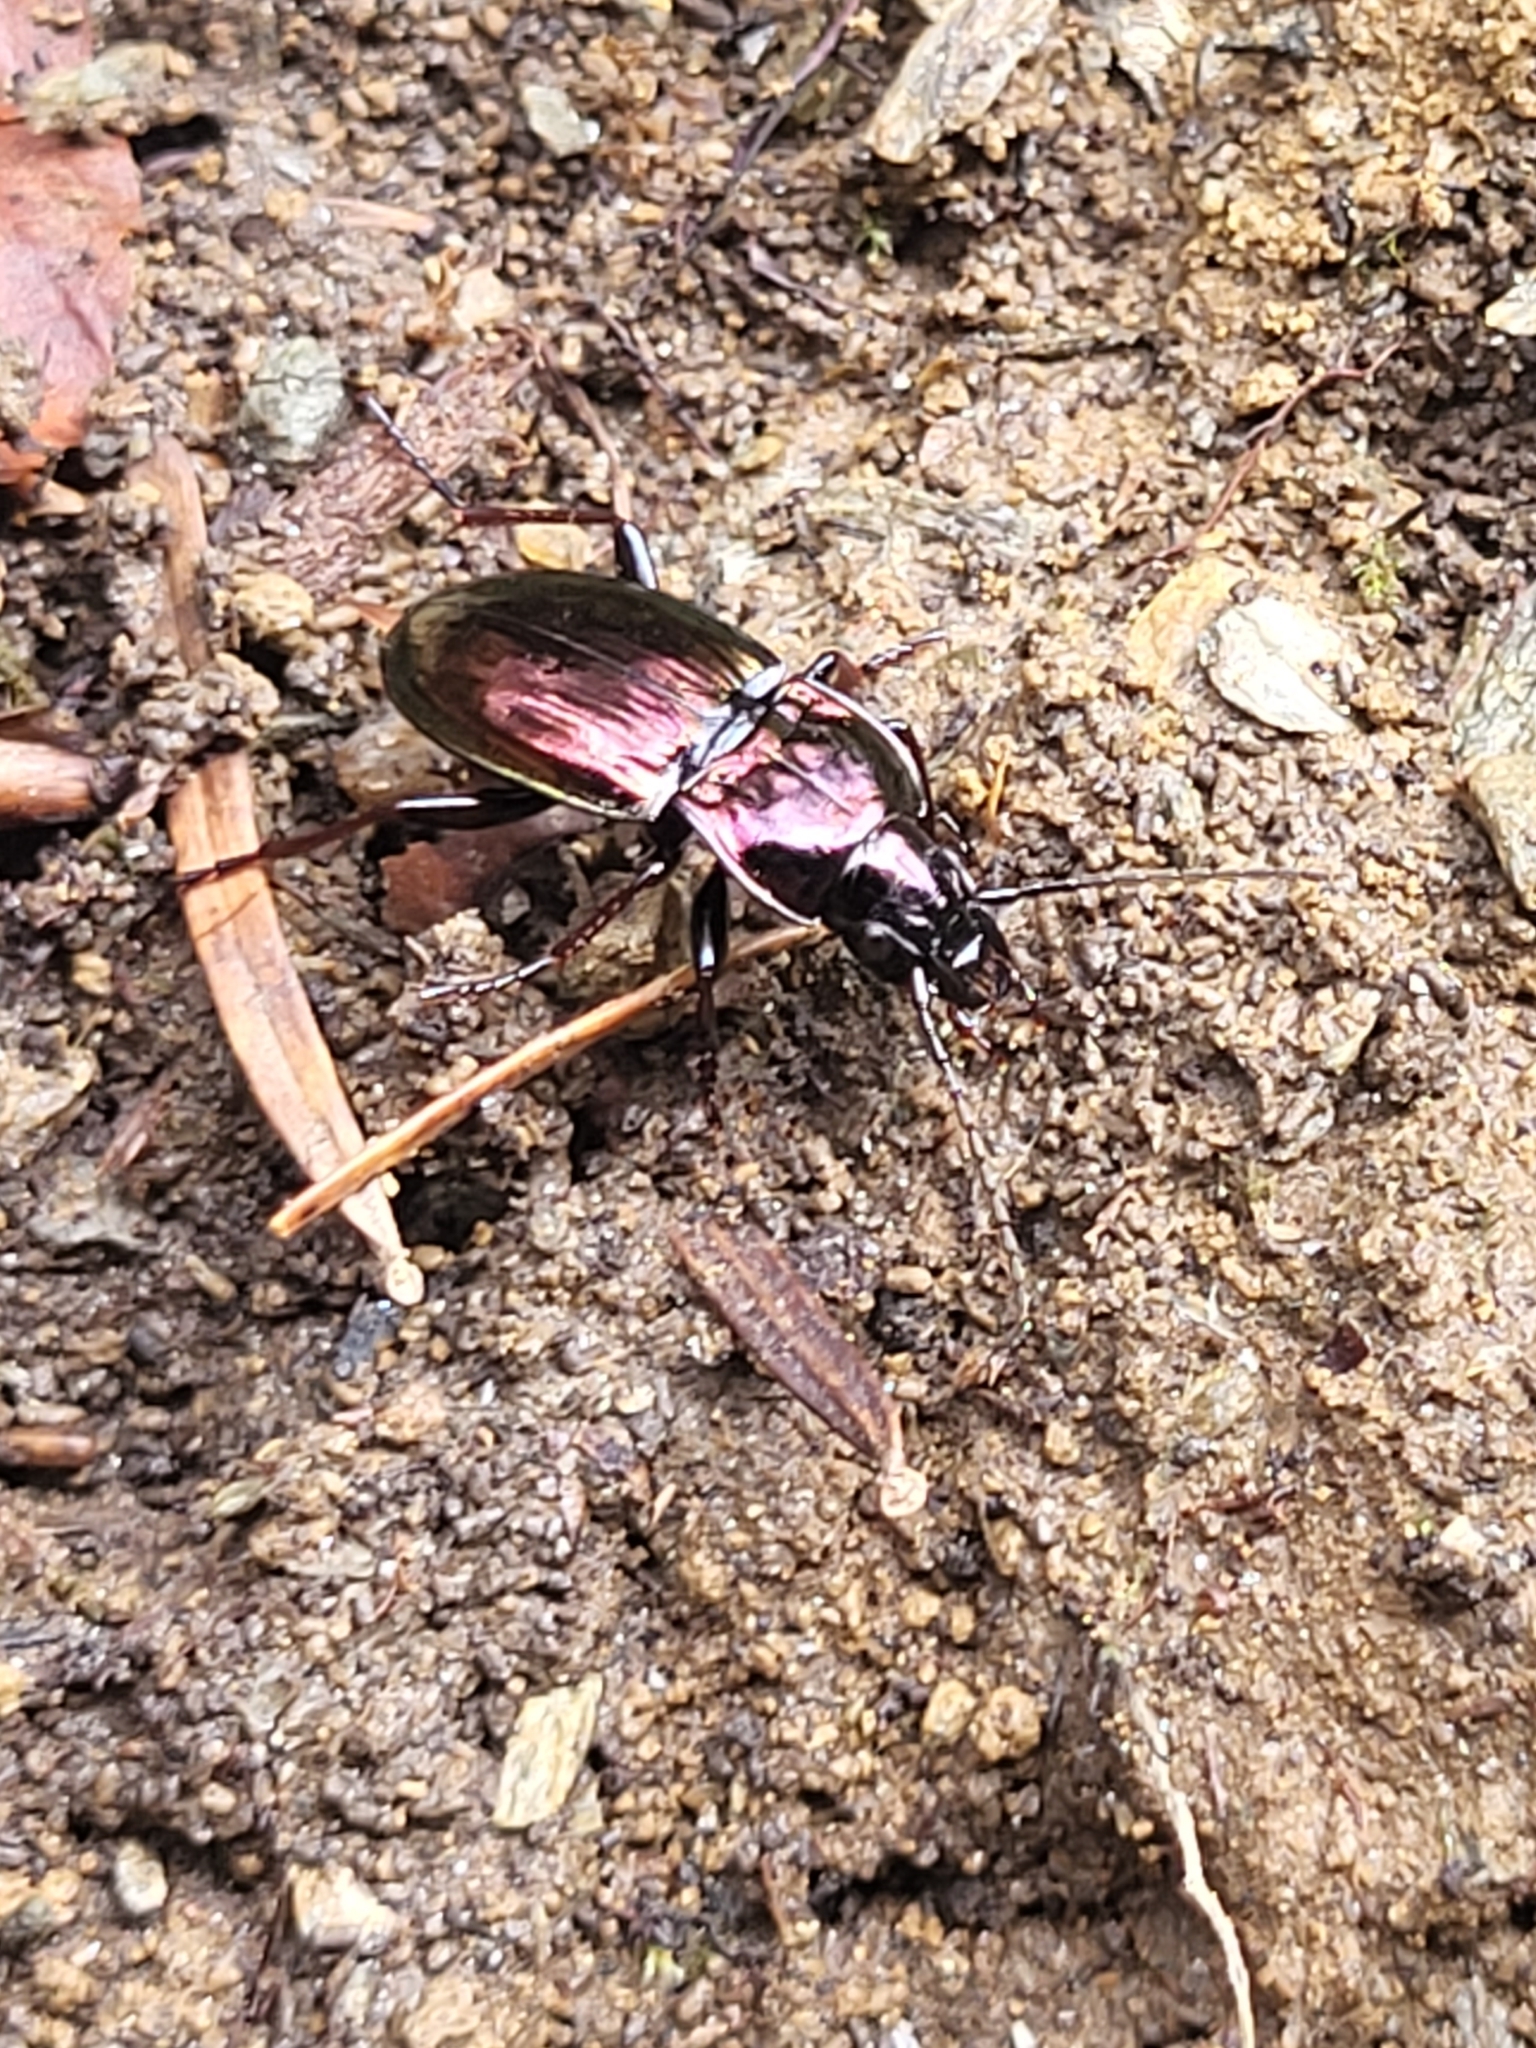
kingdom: Animalia
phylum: Arthropoda
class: Insecta
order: Coleoptera
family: Carabidae
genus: Pterostichus
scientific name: Pterostichus burmeisteri
